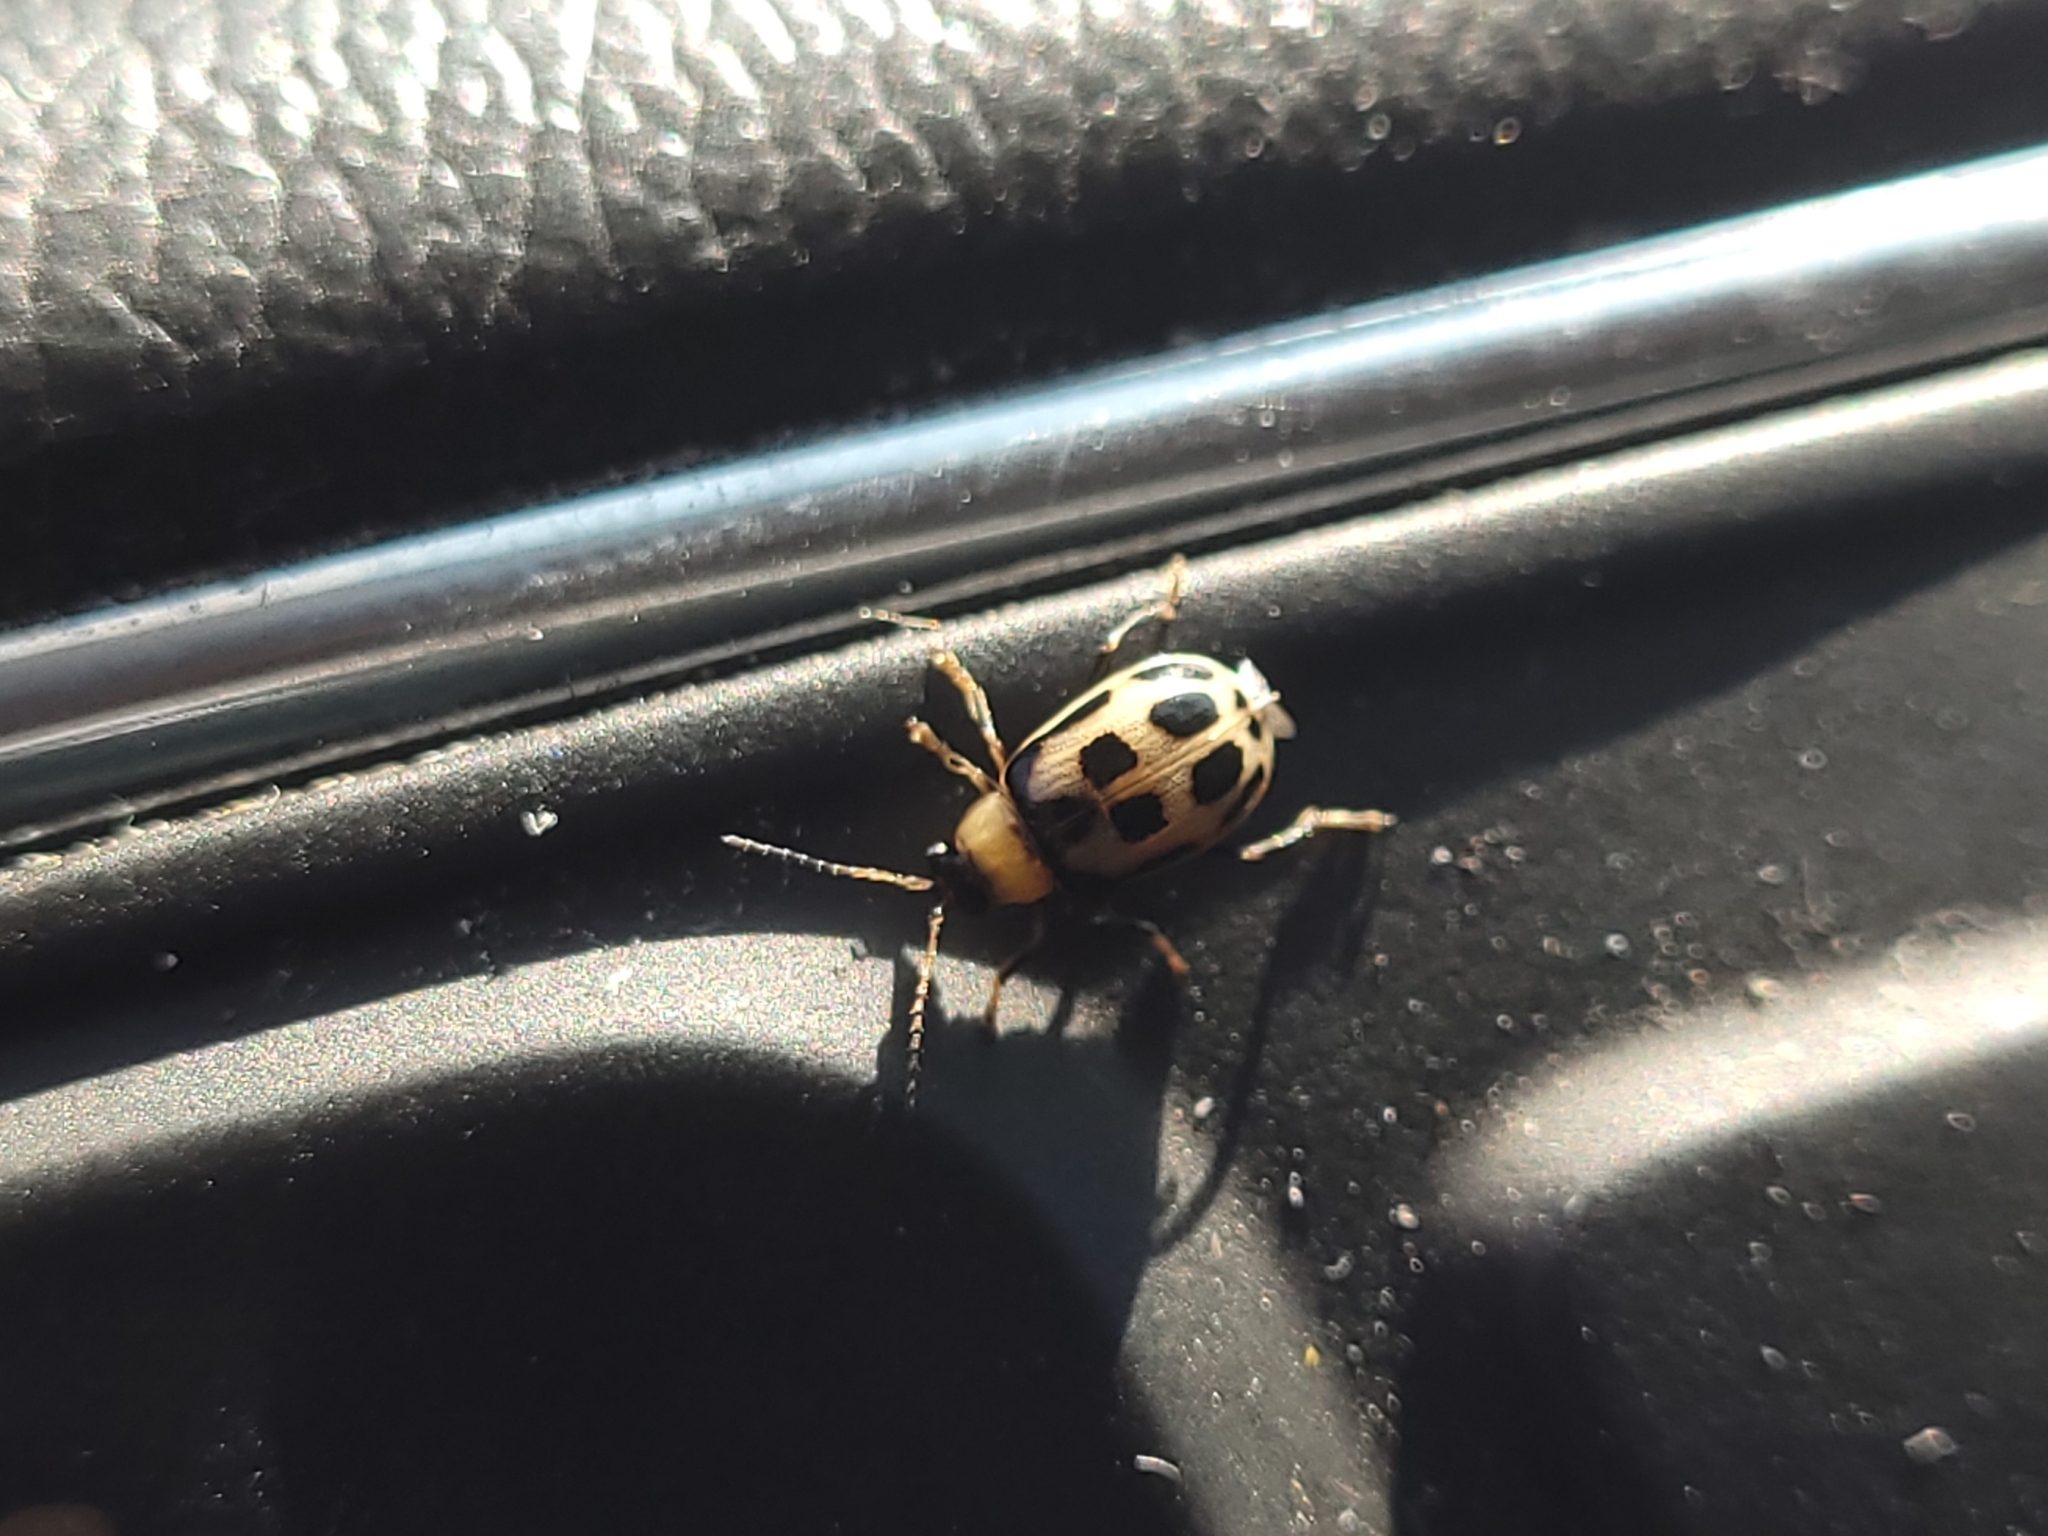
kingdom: Animalia
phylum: Arthropoda
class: Insecta
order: Coleoptera
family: Chrysomelidae
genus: Cerotoma
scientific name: Cerotoma trifurcata
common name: Bean leaf beetle
